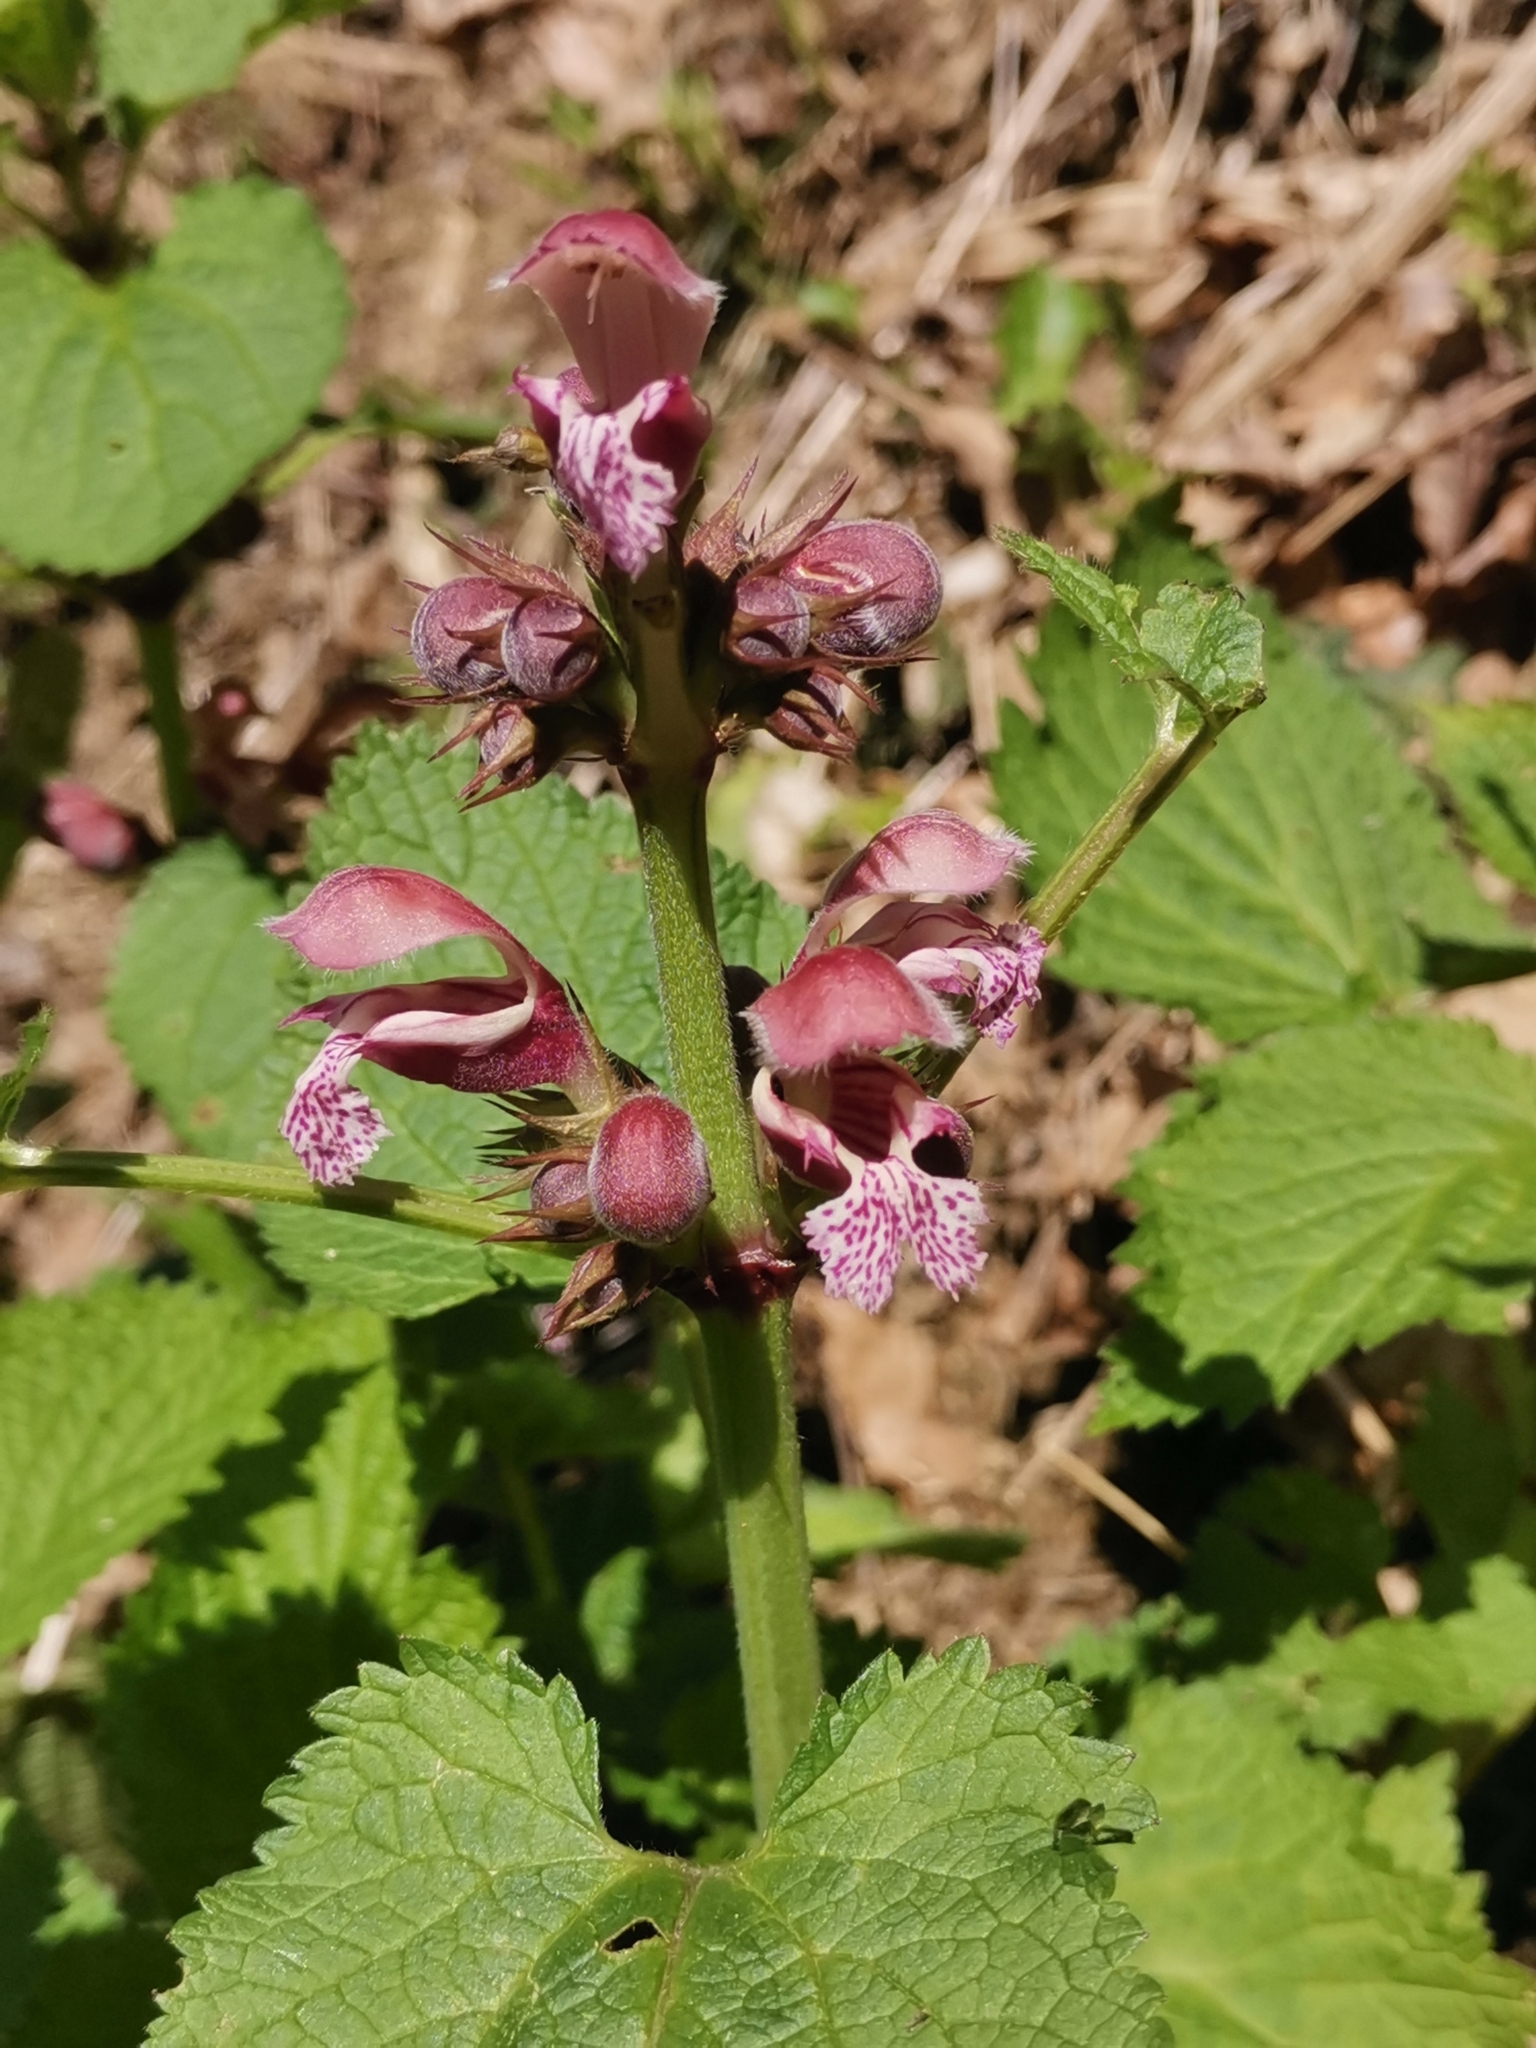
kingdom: Plantae
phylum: Tracheophyta
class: Magnoliopsida
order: Lamiales
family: Lamiaceae
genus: Lamium
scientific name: Lamium orvala
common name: Balm-leaved archangel
